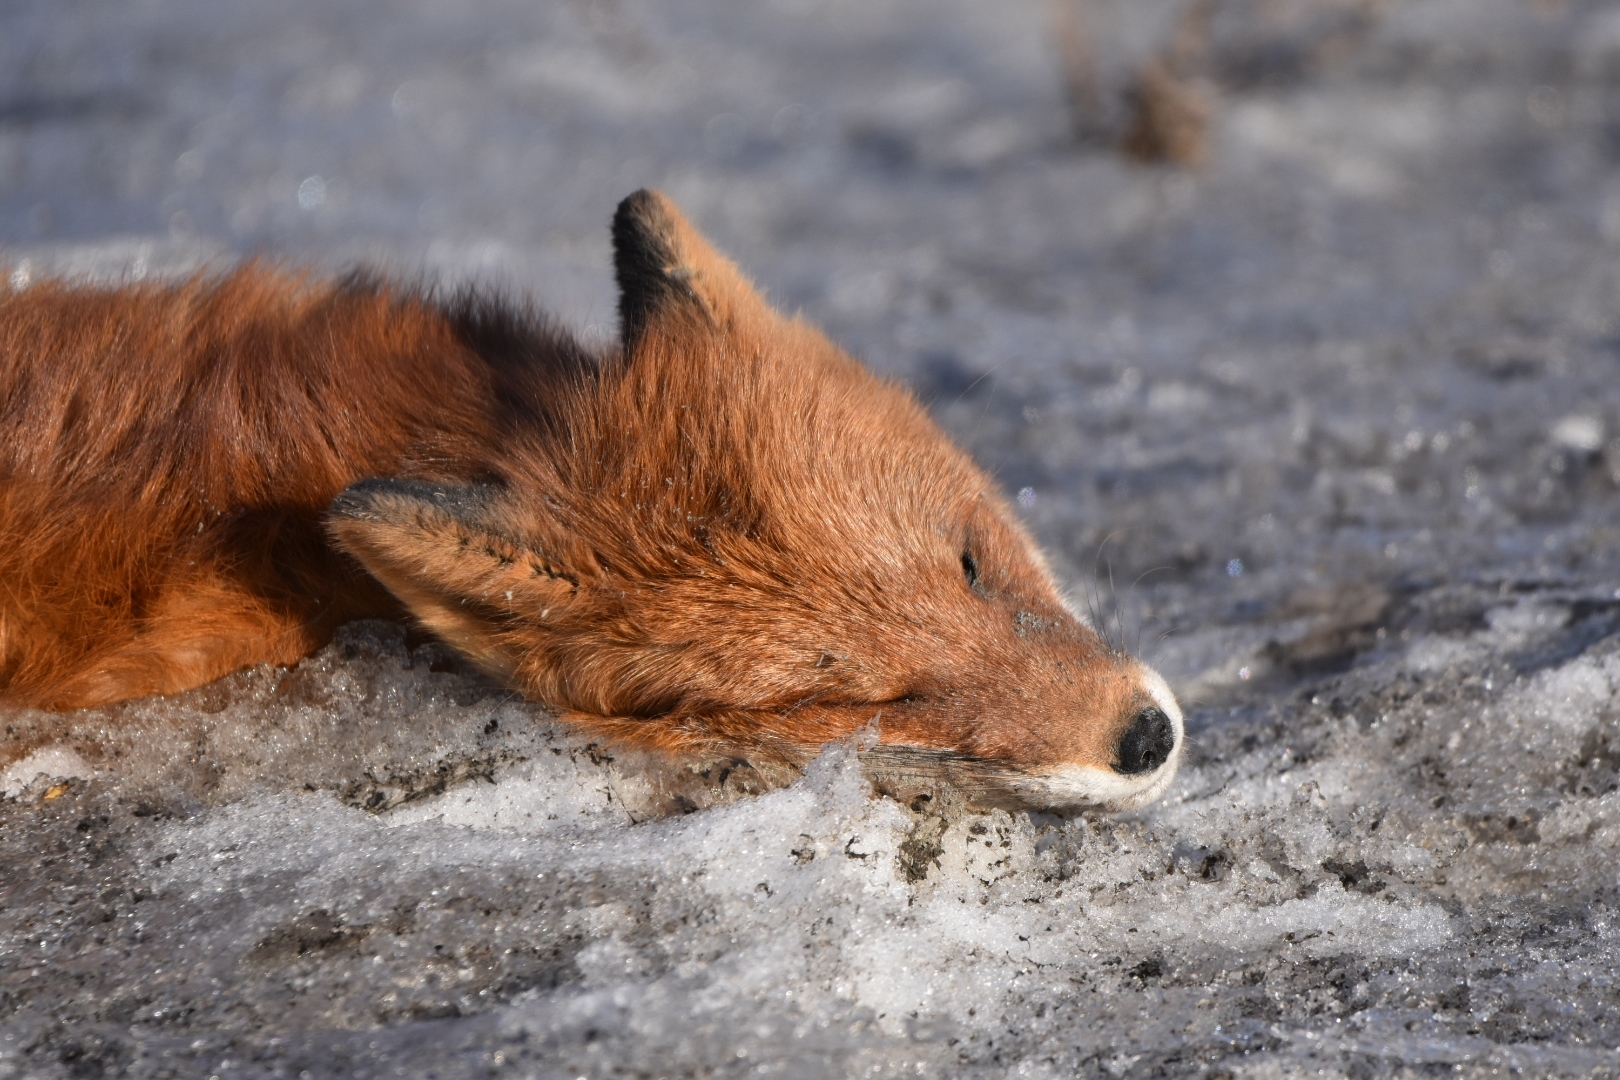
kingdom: Animalia
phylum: Chordata
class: Mammalia
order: Carnivora
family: Canidae
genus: Vulpes
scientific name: Vulpes vulpes
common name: Red fox
